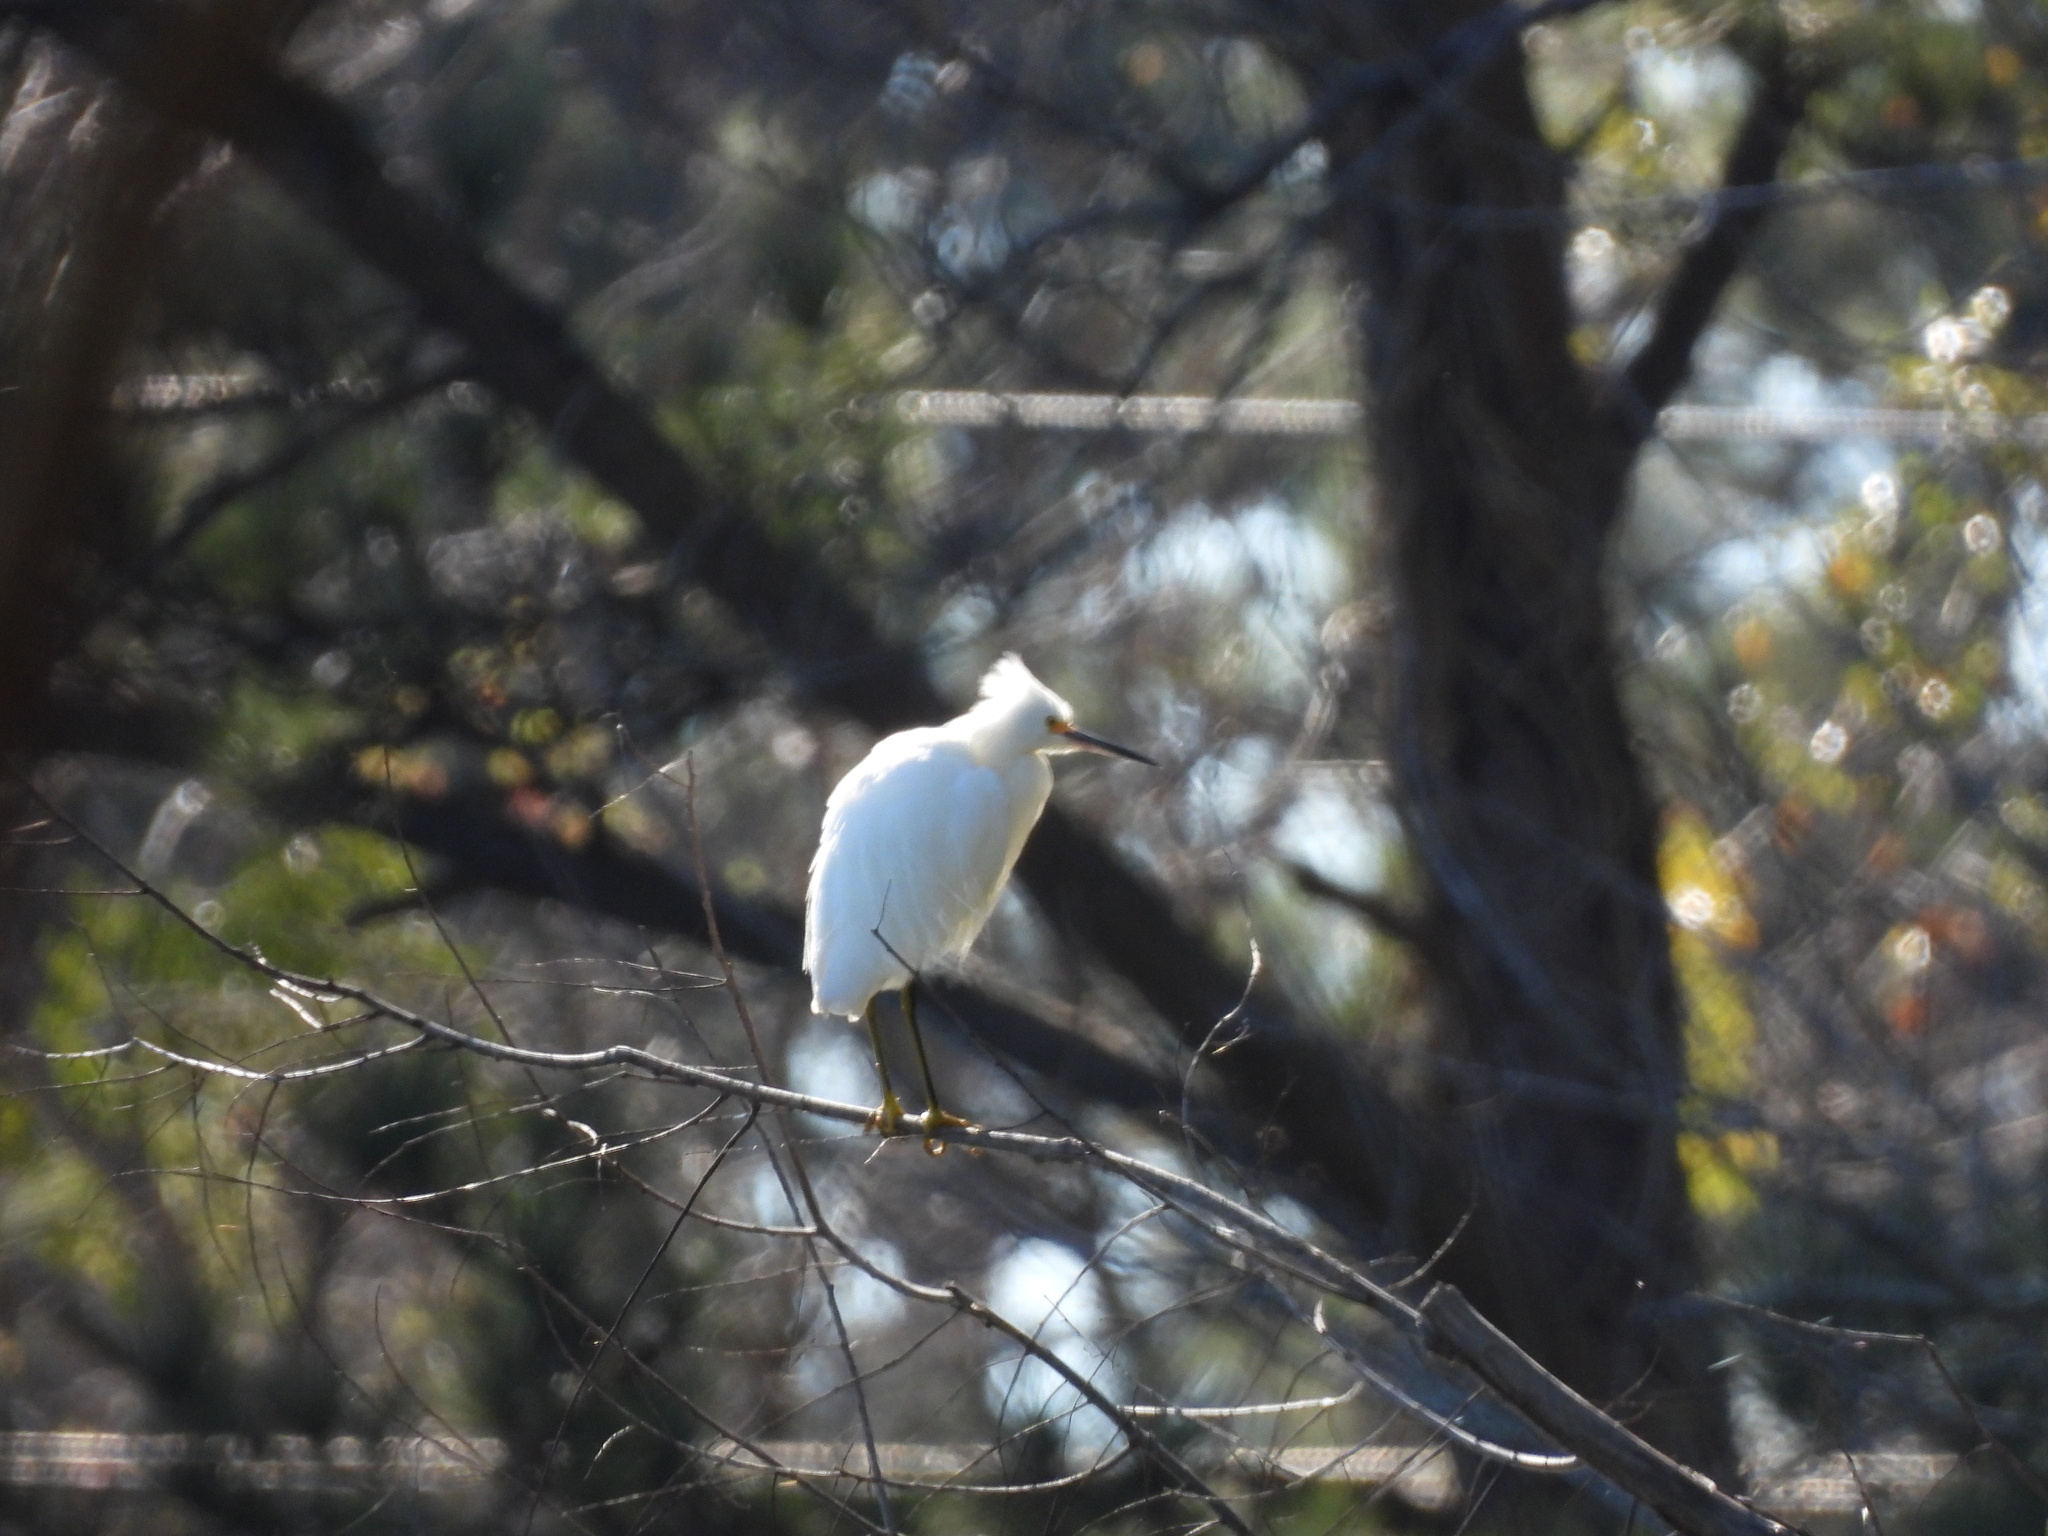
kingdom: Animalia
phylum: Chordata
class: Aves
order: Pelecaniformes
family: Ardeidae
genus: Egretta
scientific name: Egretta thula
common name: Snowy egret
